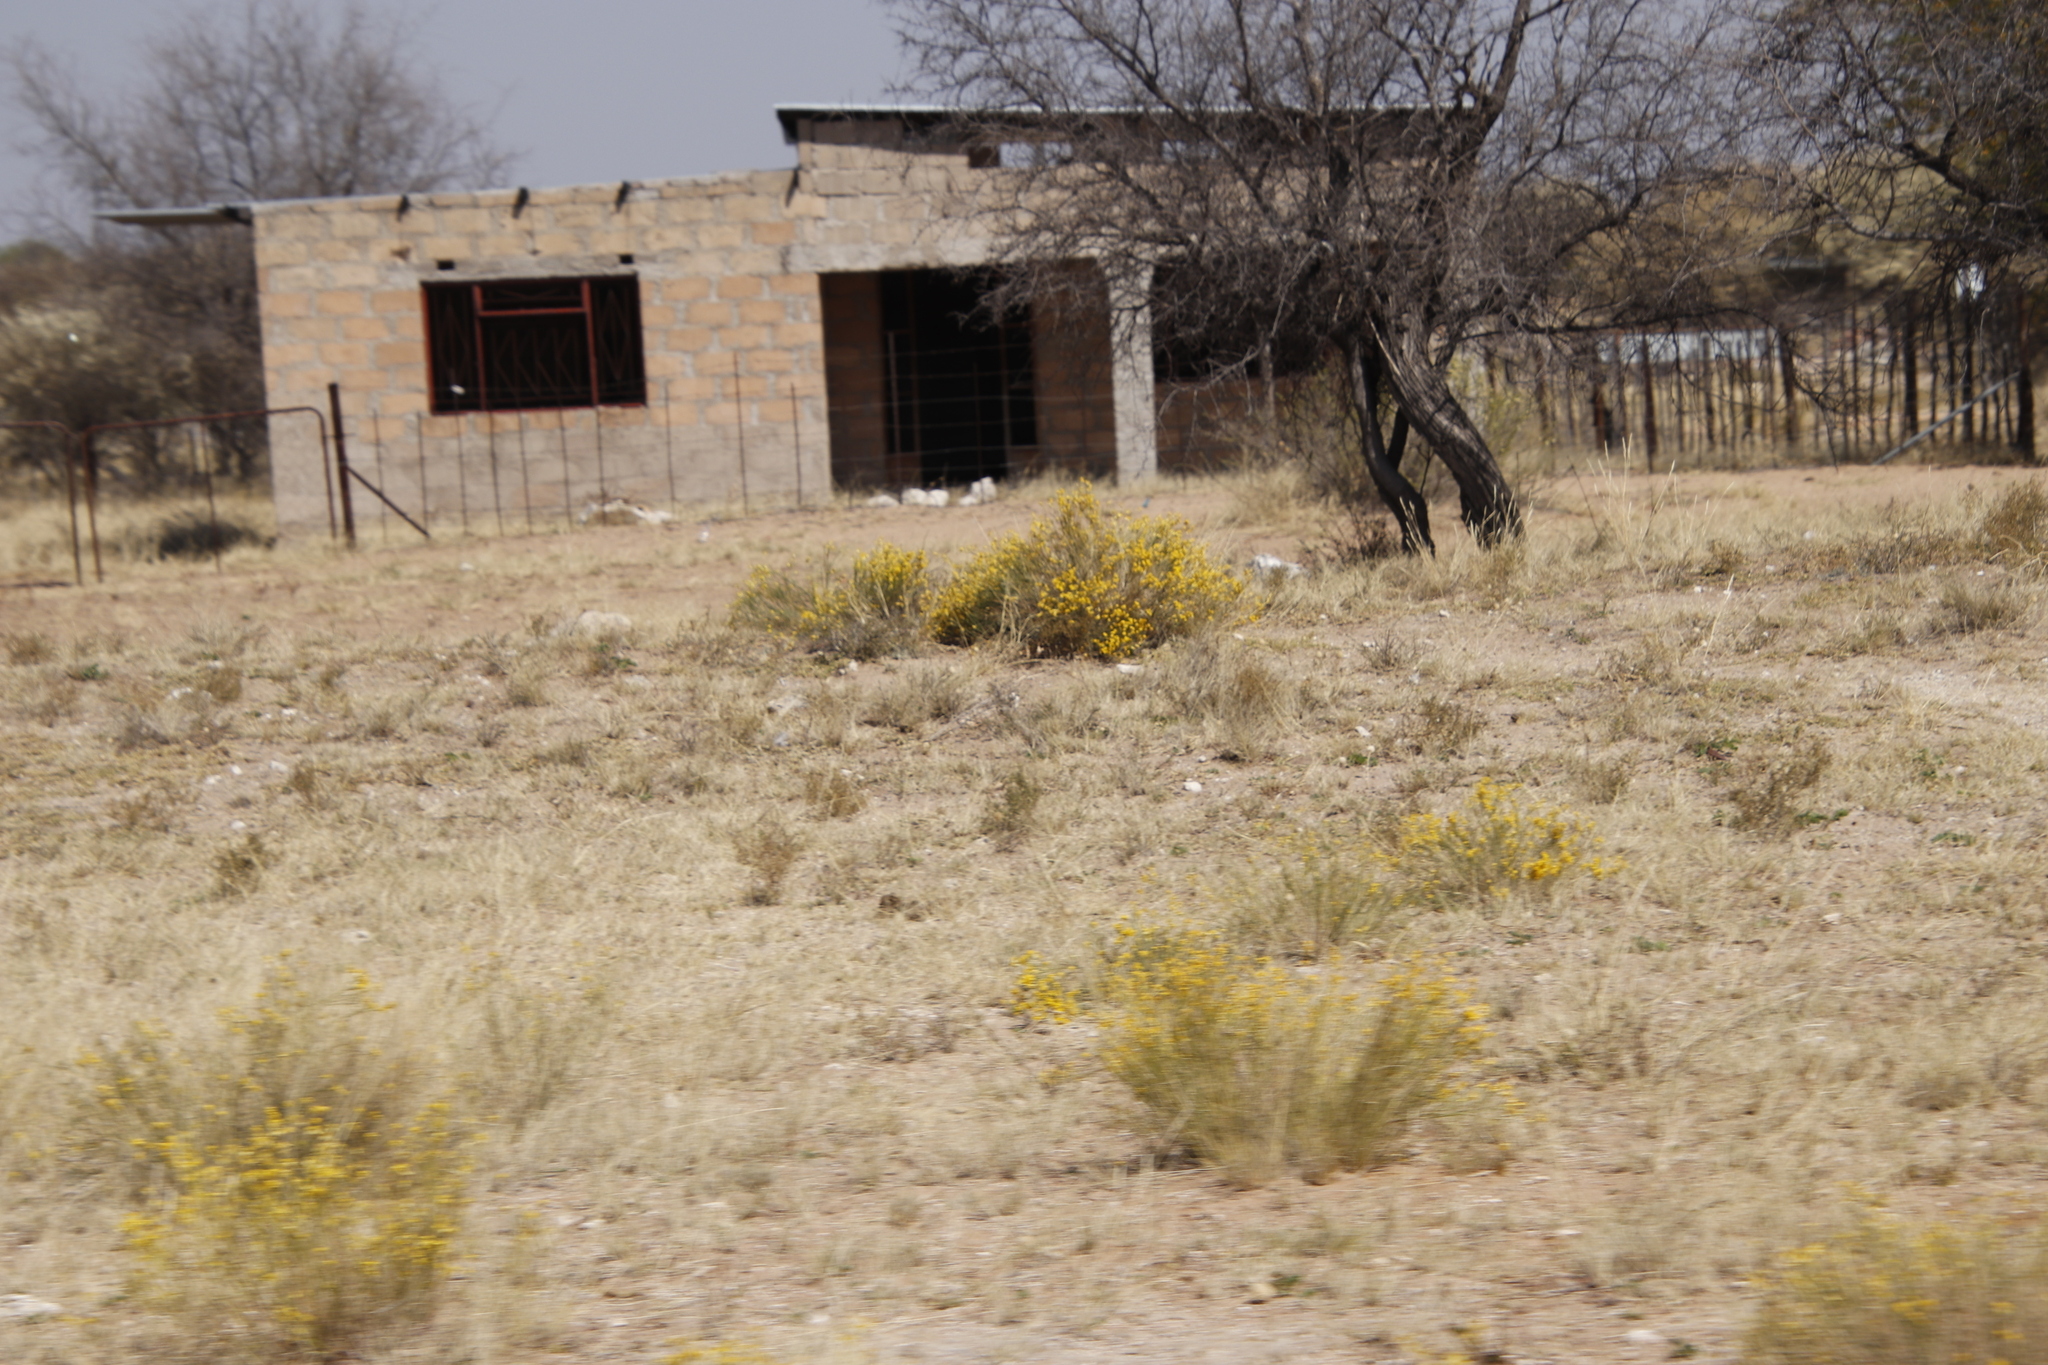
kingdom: Plantae
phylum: Tracheophyta
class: Magnoliopsida
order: Malvales
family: Thymelaeaceae
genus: Gnidia
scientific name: Gnidia polycephala
